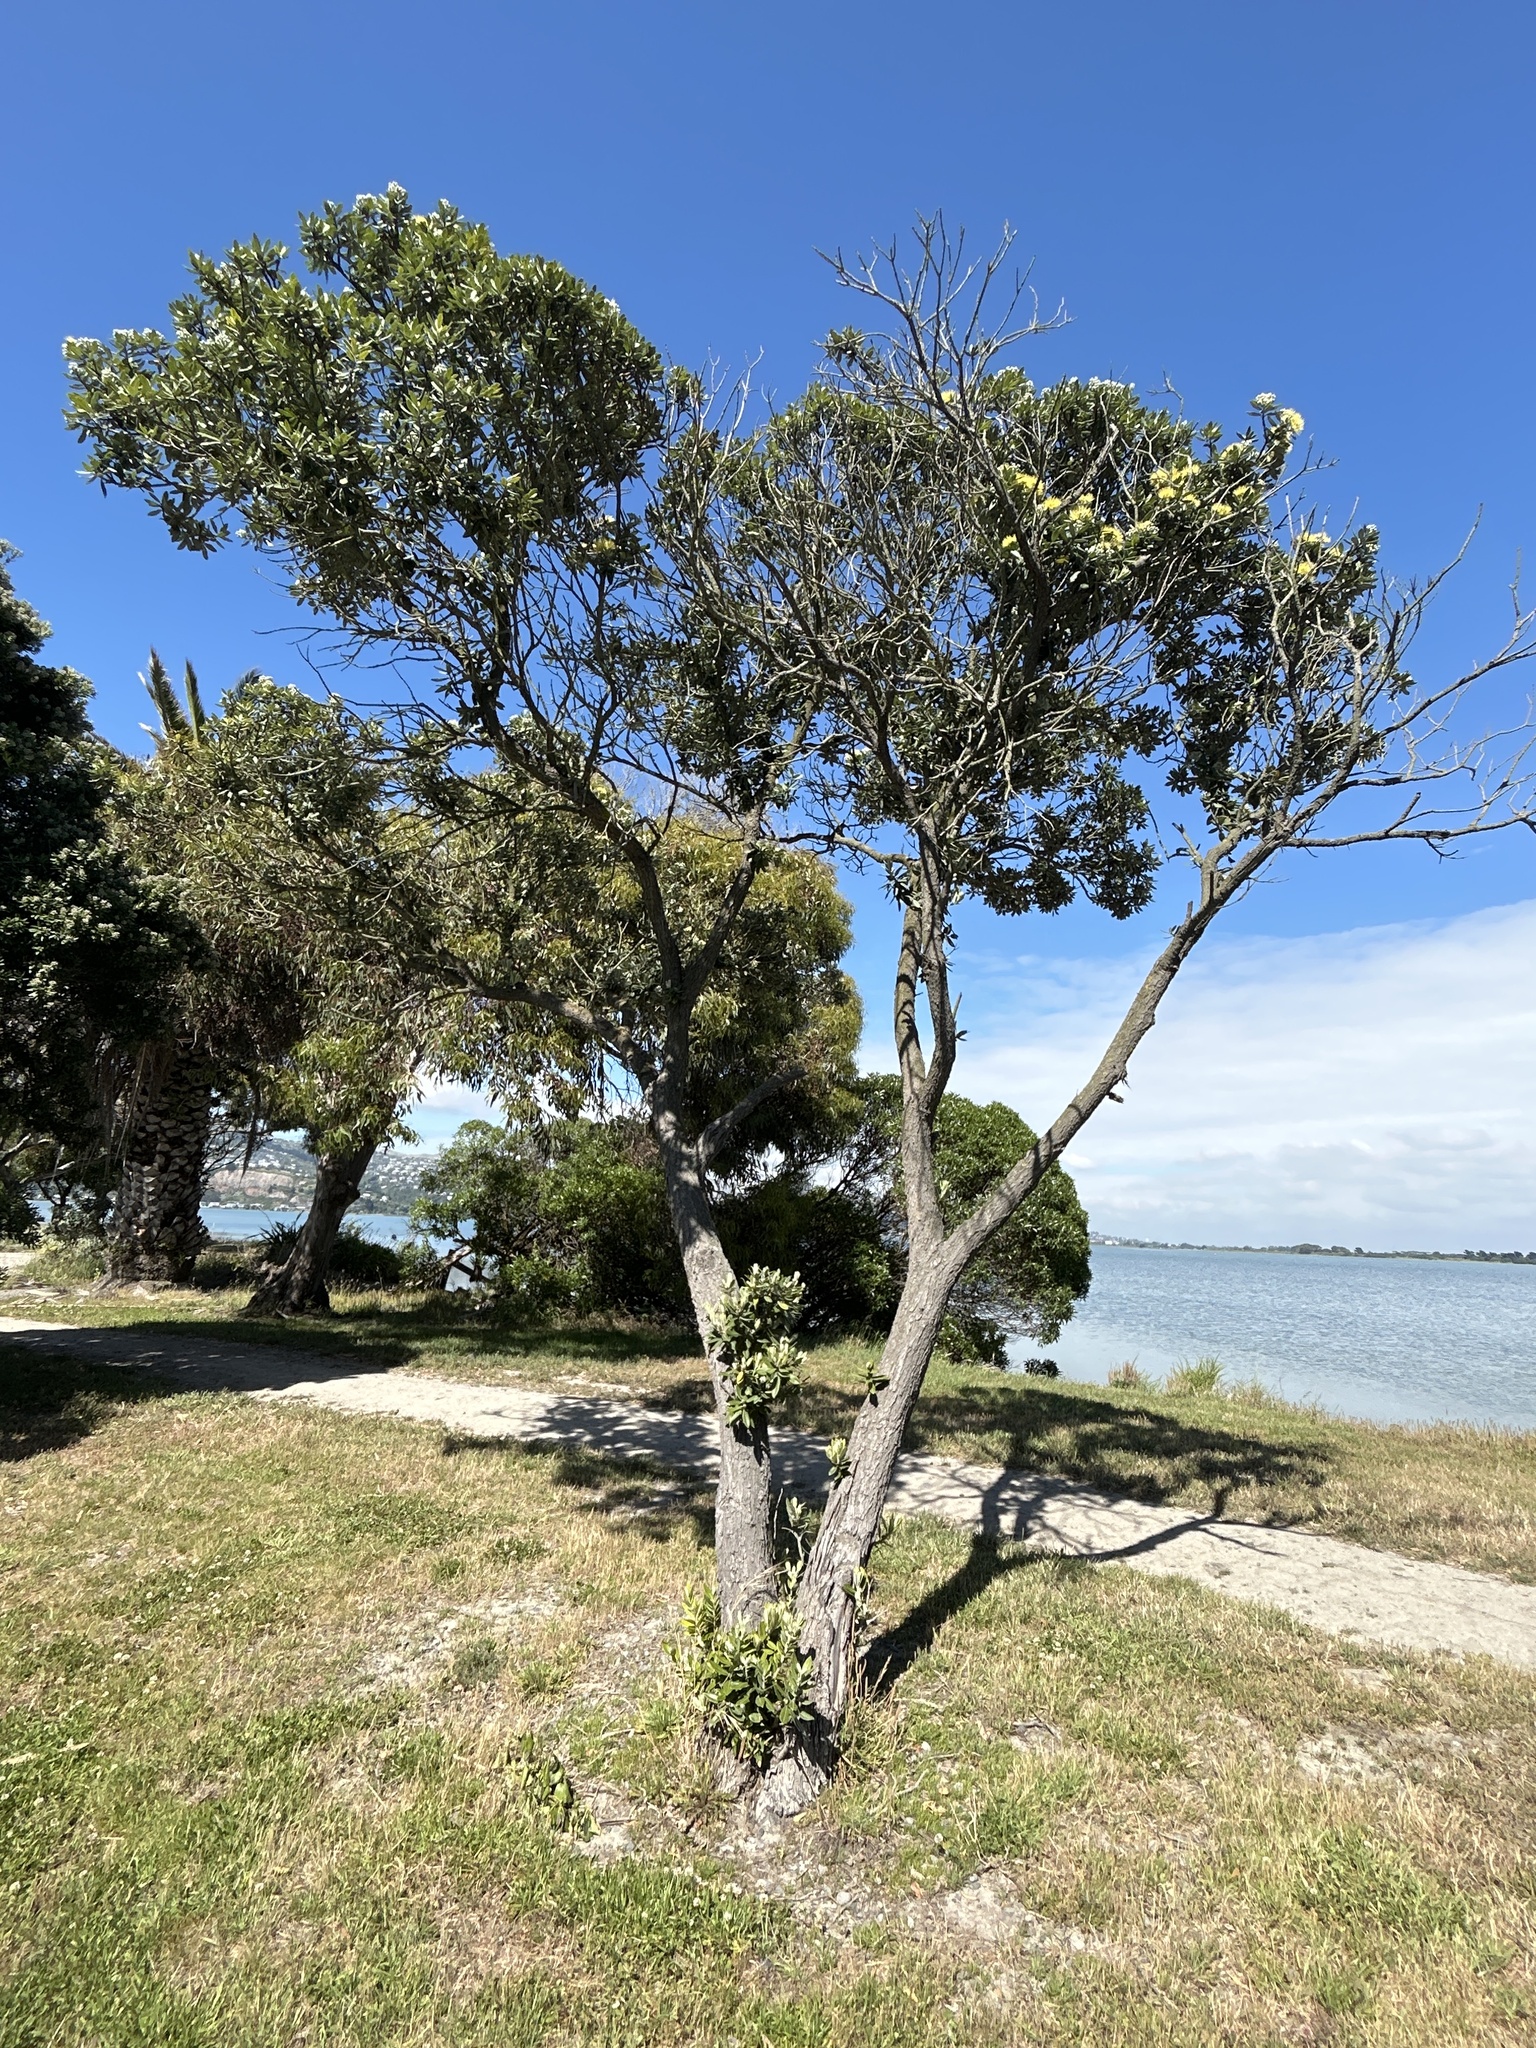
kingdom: Plantae
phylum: Tracheophyta
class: Magnoliopsida
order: Myrtales
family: Myrtaceae
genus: Metrosideros
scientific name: Metrosideros excelsa
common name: New zealand christmastree
